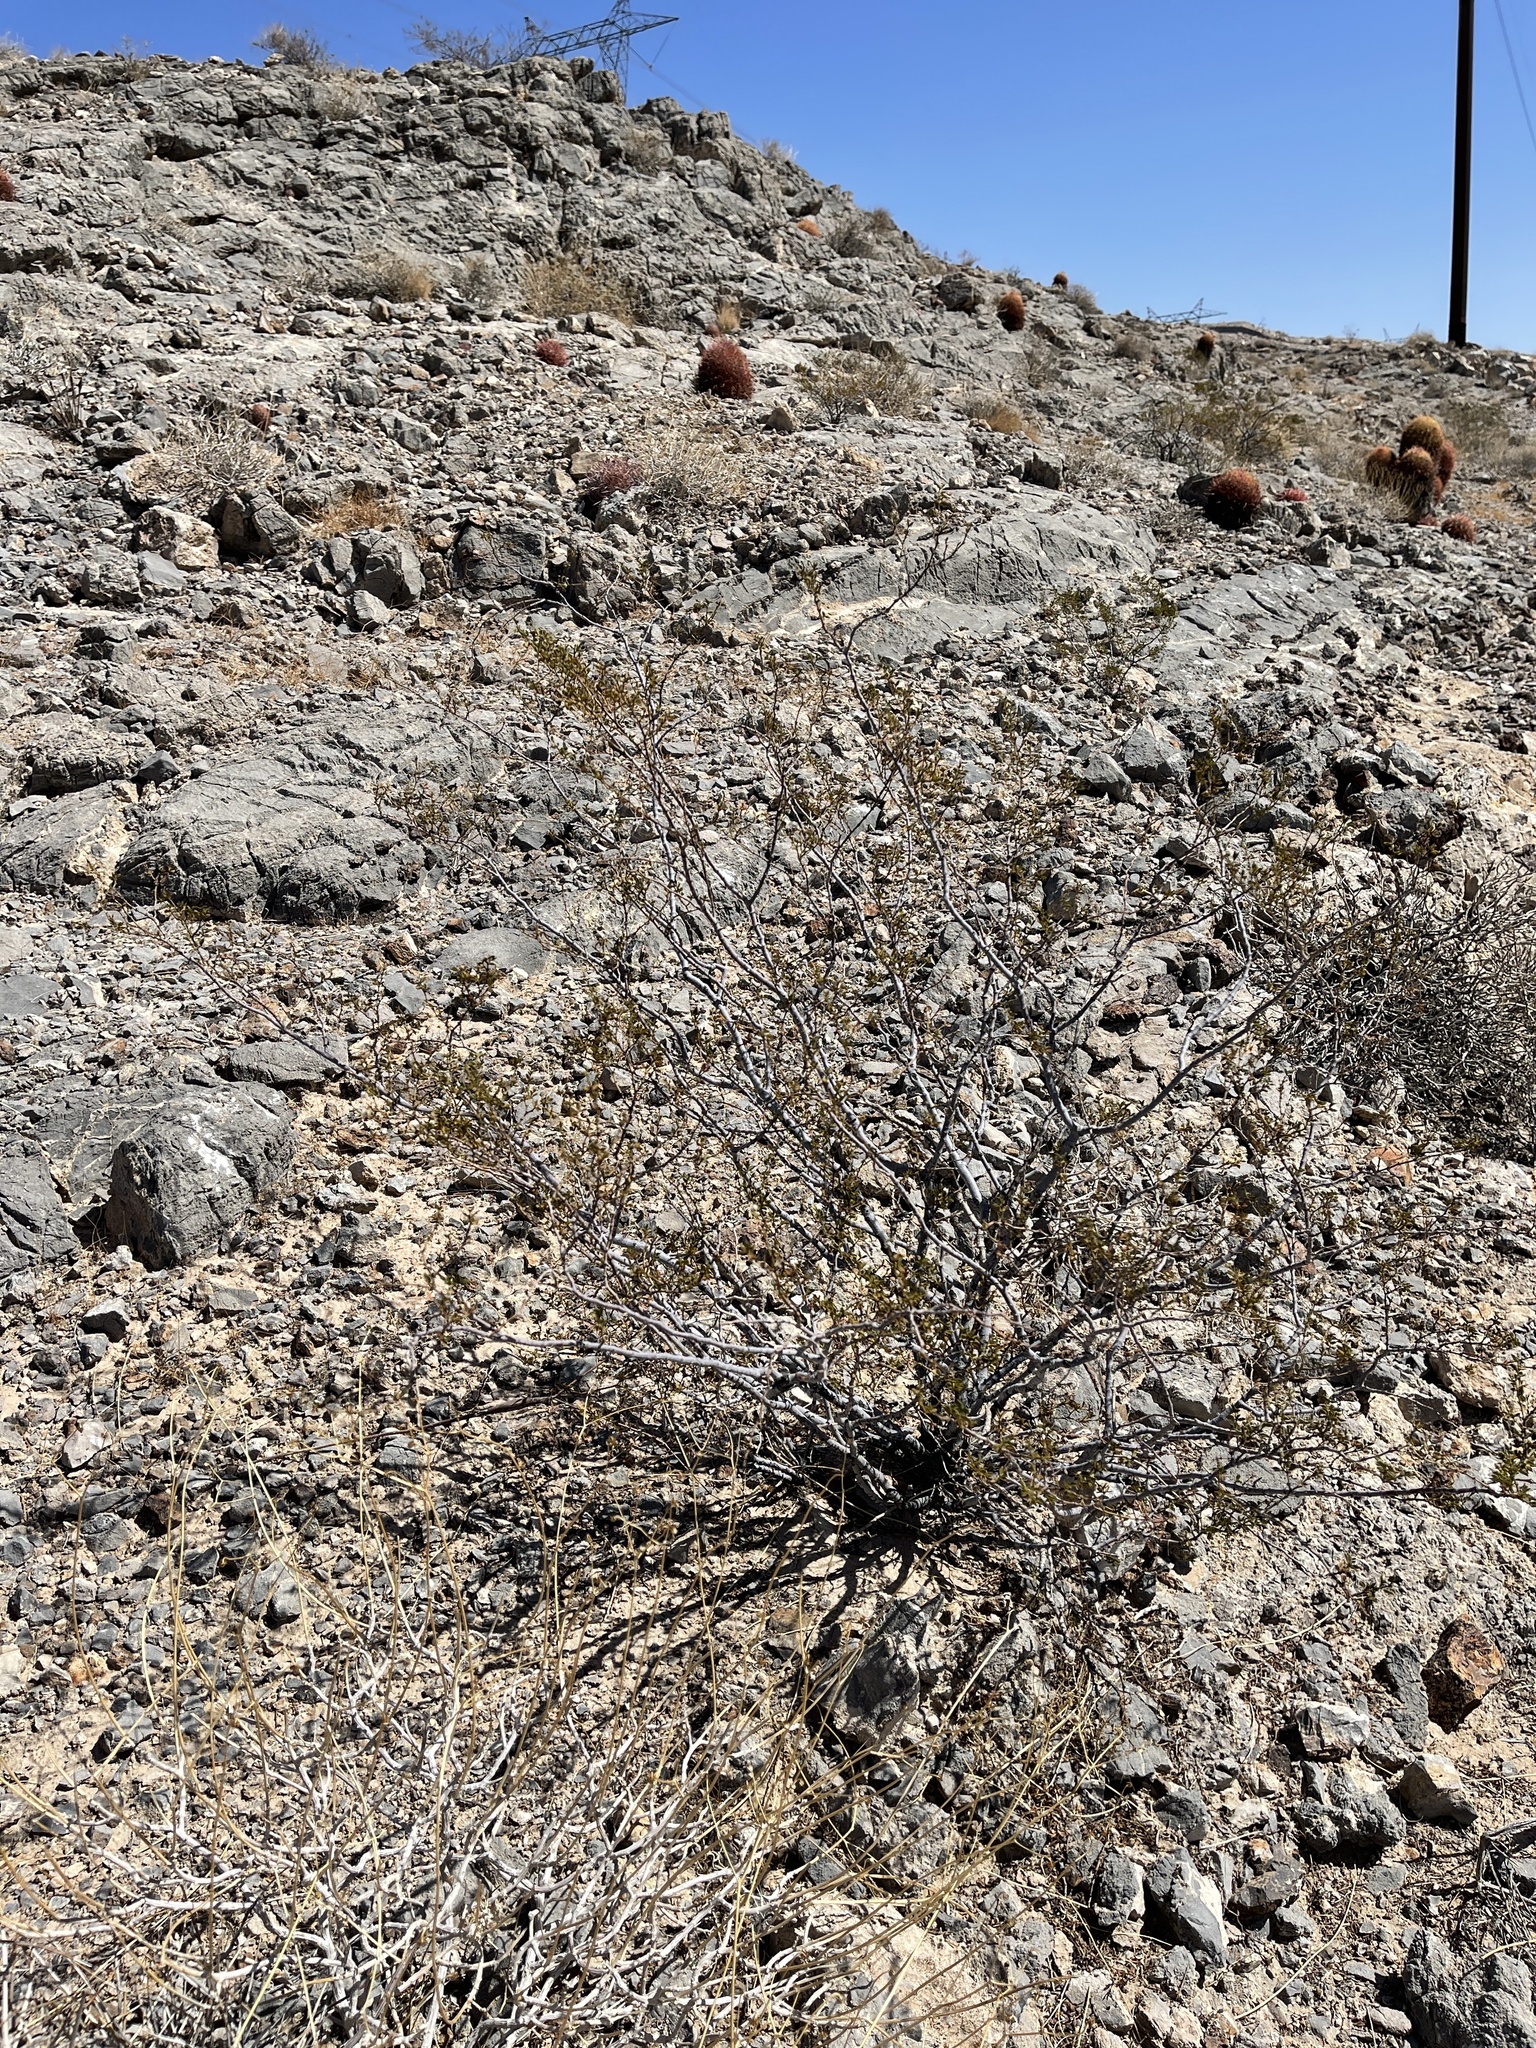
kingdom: Plantae
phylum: Tracheophyta
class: Magnoliopsida
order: Zygophyllales
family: Zygophyllaceae
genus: Larrea
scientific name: Larrea tridentata
